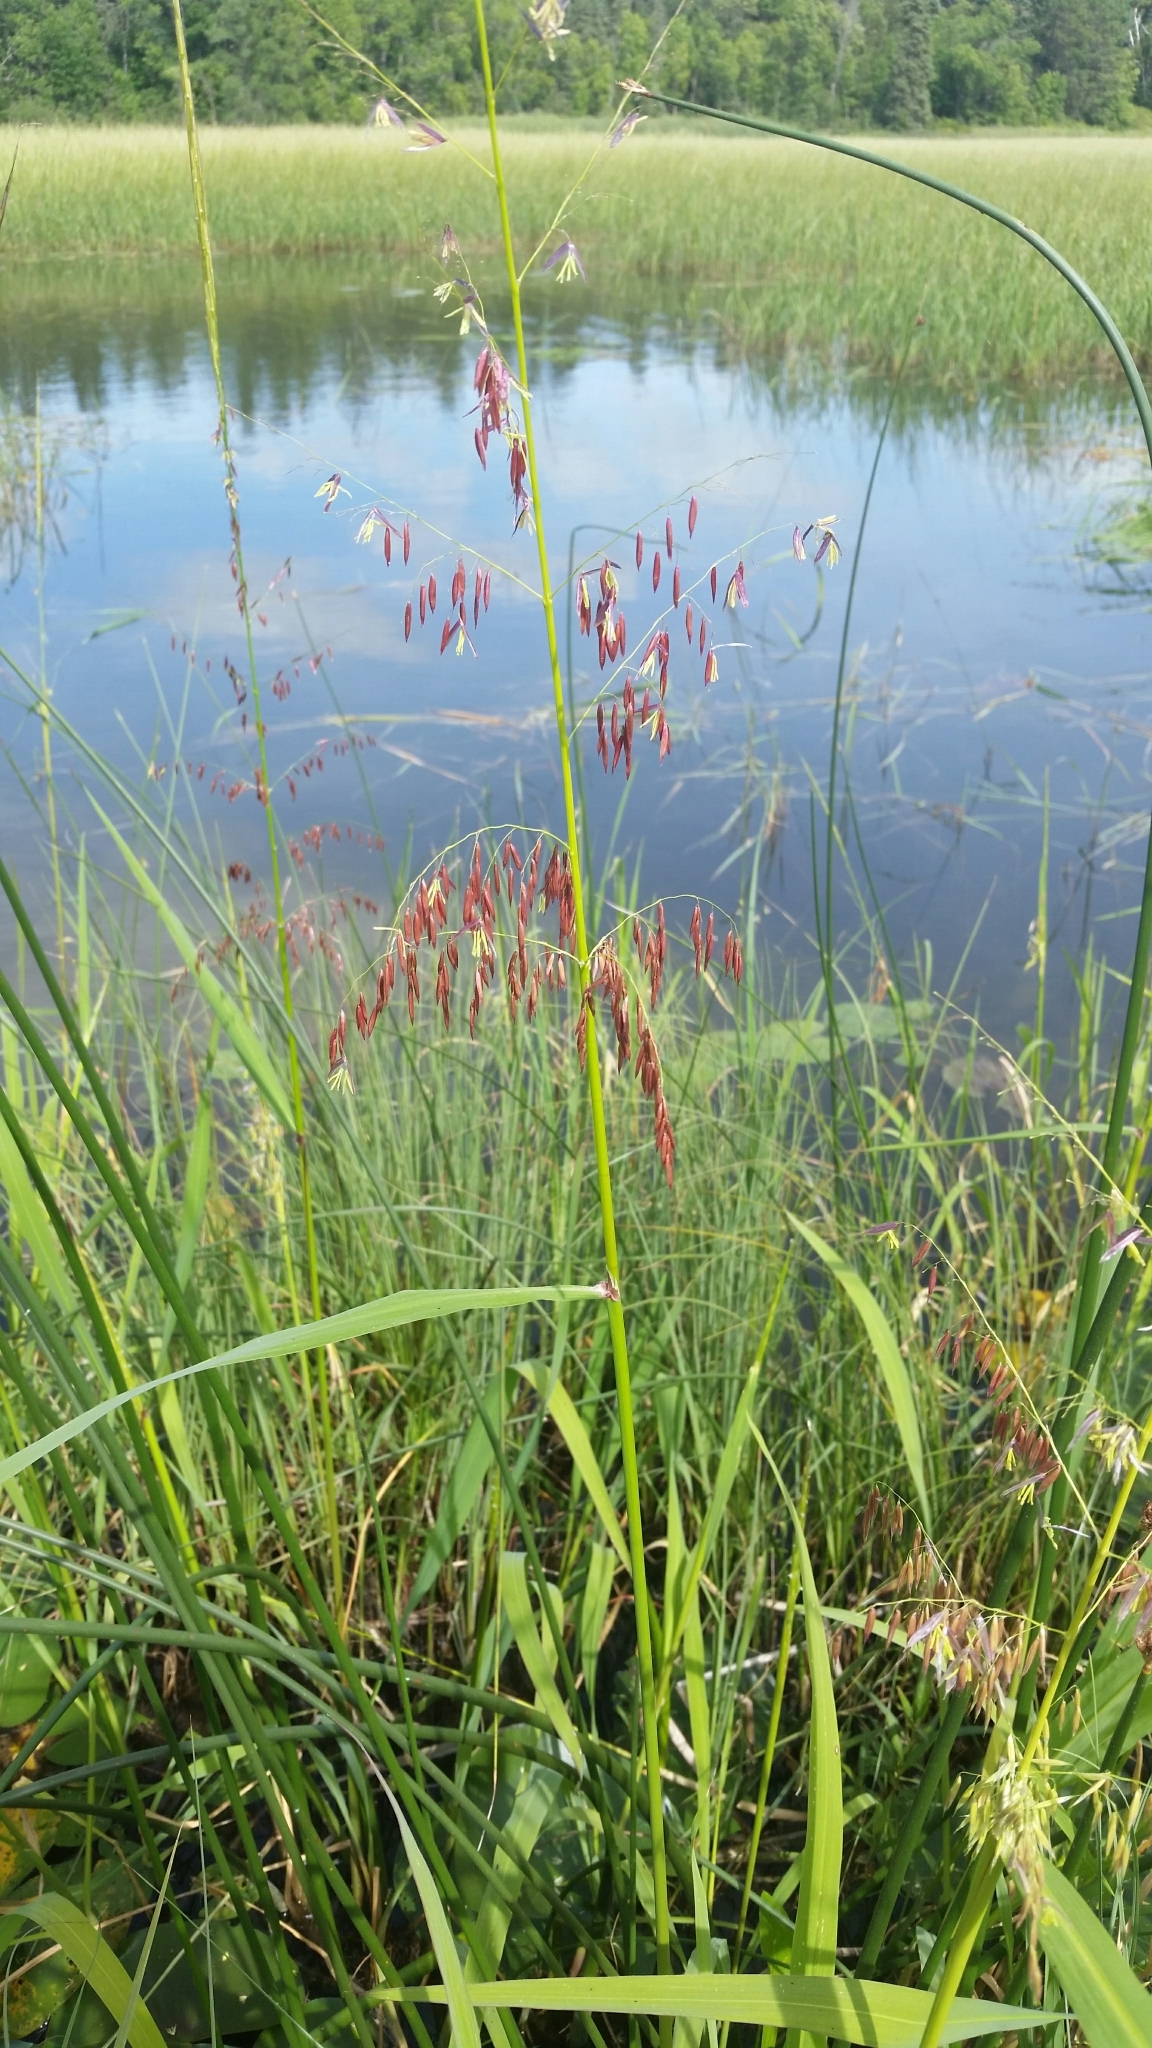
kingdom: Plantae
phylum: Tracheophyta
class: Liliopsida
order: Poales
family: Poaceae
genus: Zizania
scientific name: Zizania palustris
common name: Northern wild rice
